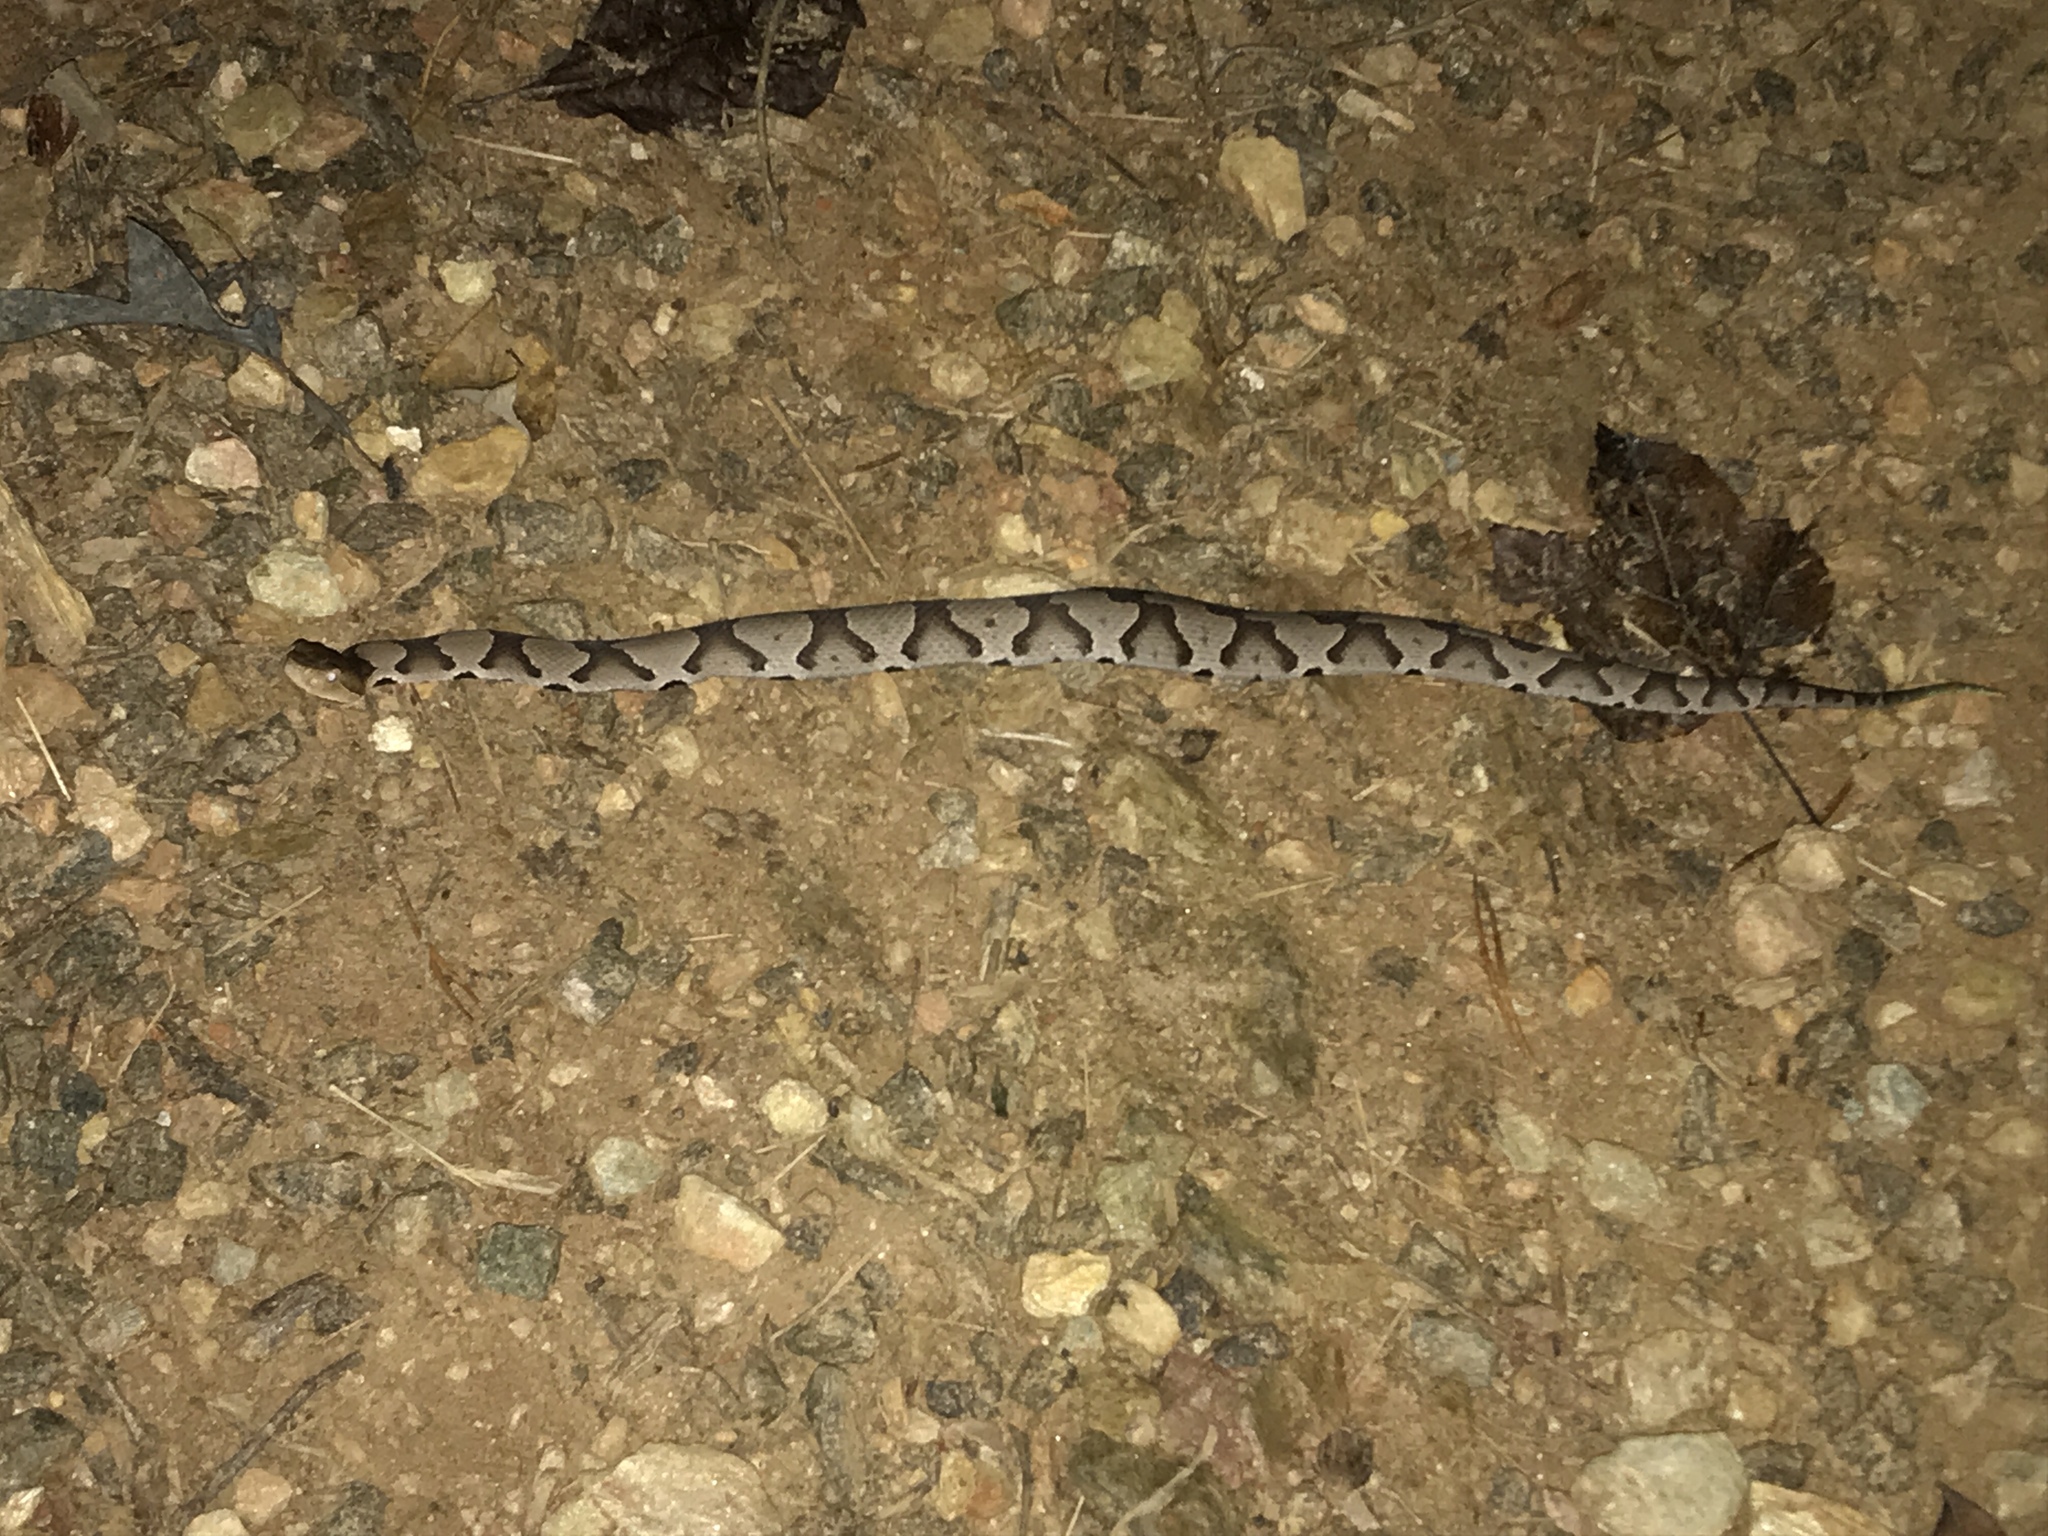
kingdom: Animalia
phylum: Chordata
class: Squamata
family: Viperidae
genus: Agkistrodon
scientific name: Agkistrodon contortrix
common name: Northern copperhead
